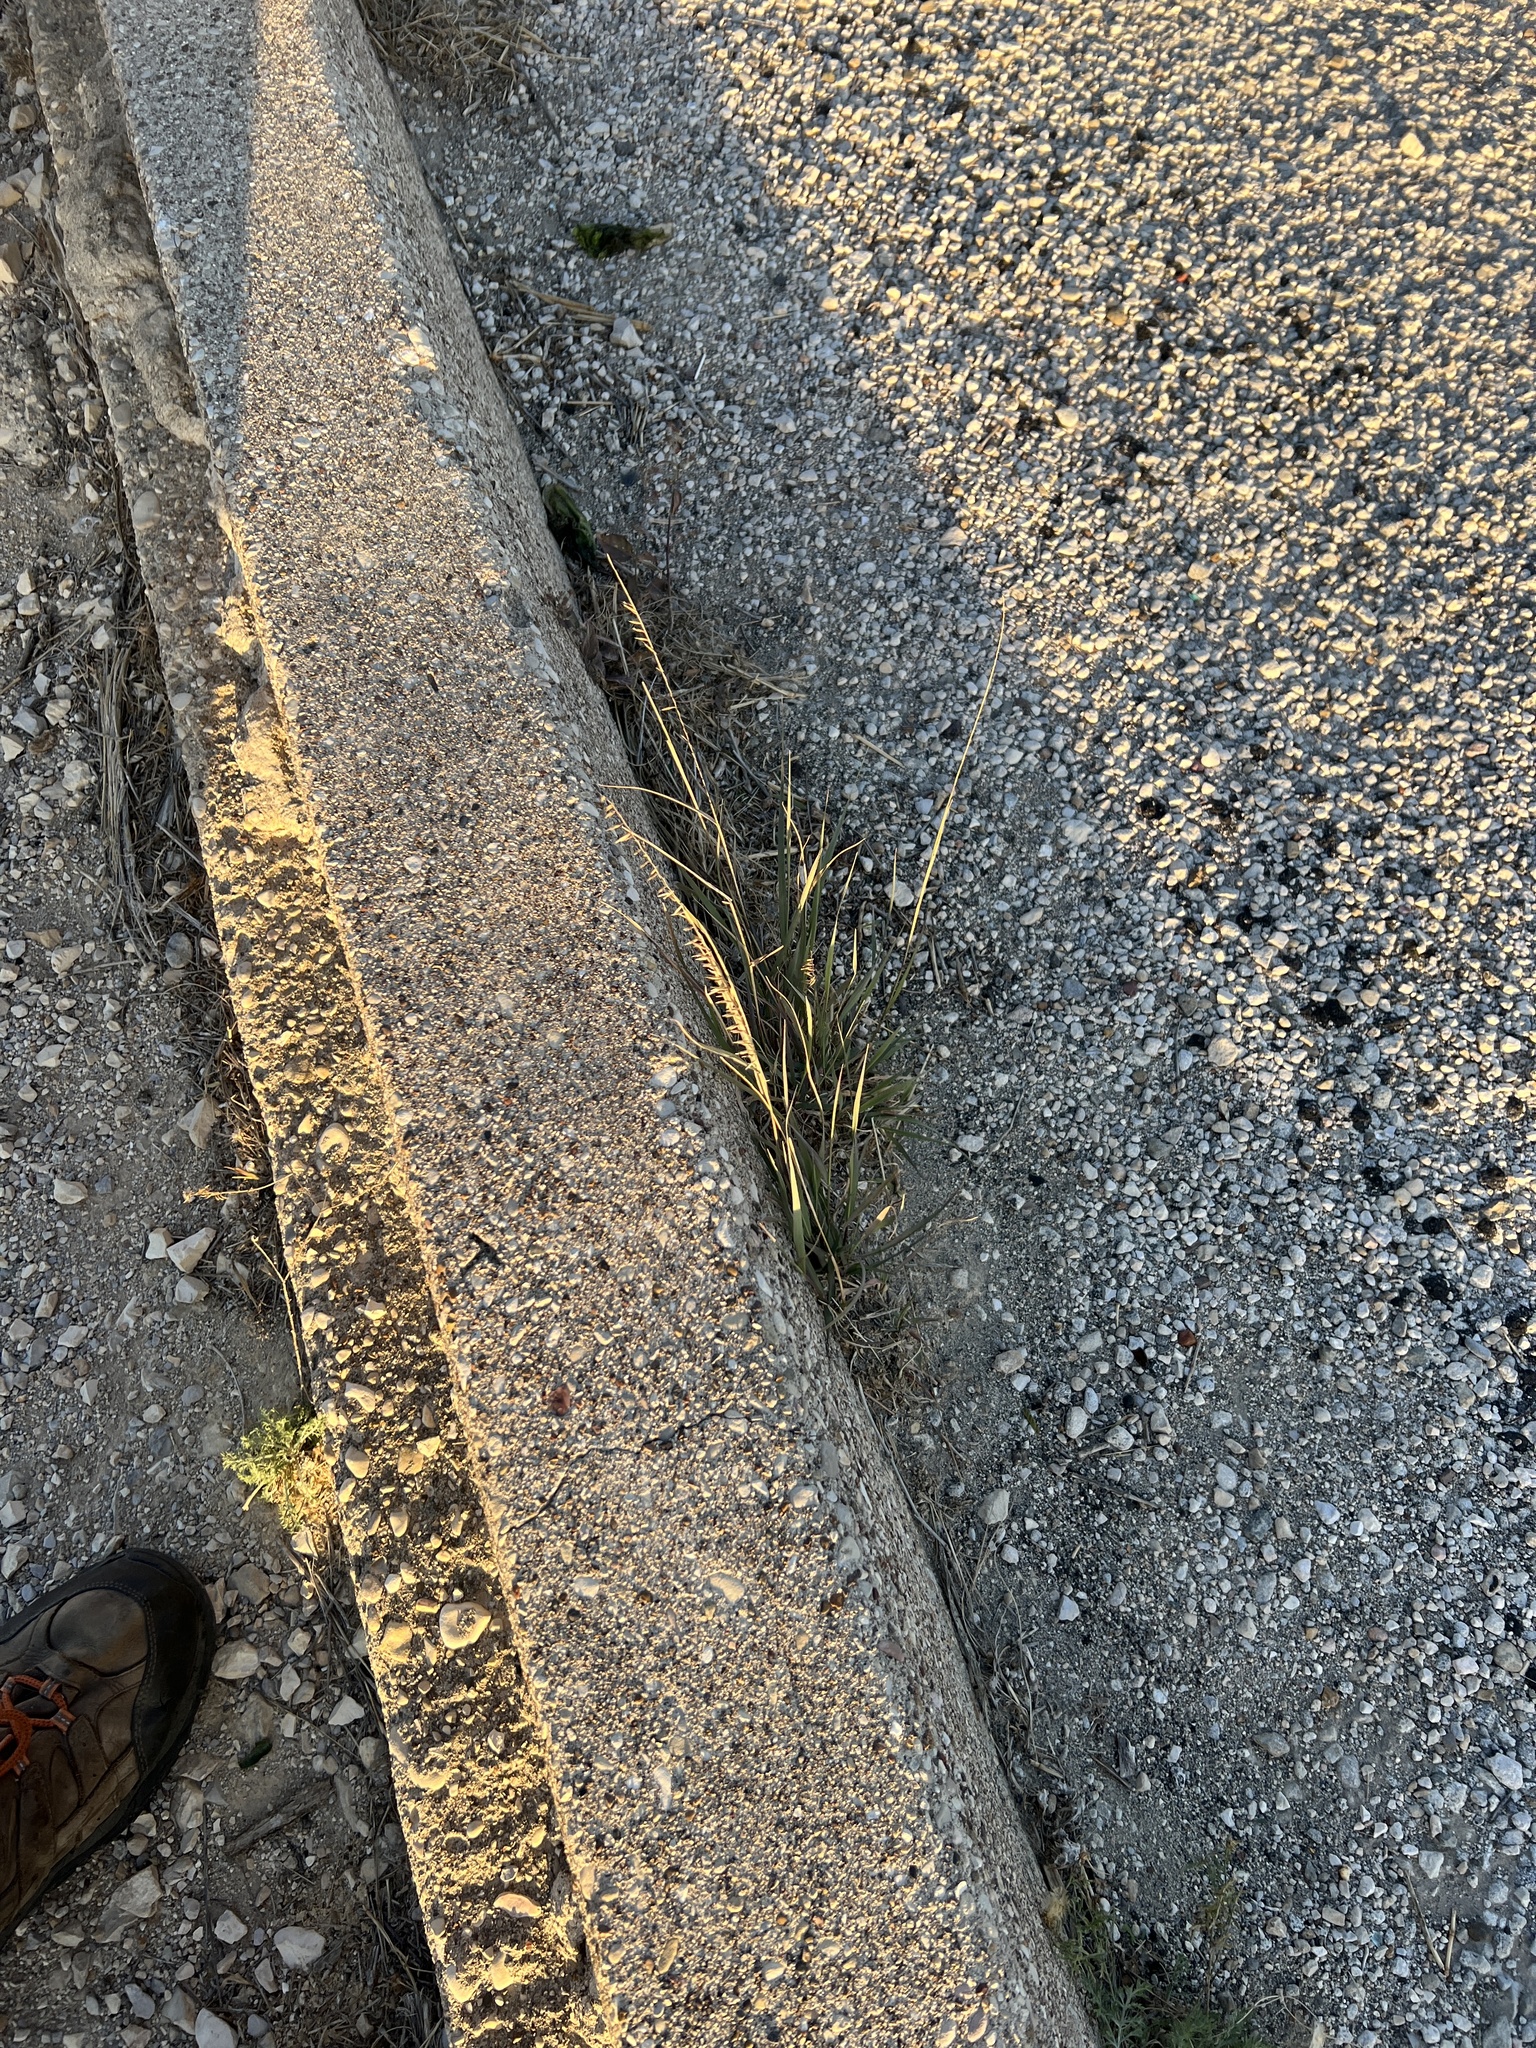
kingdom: Plantae
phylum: Tracheophyta
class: Liliopsida
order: Poales
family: Poaceae
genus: Bouteloua
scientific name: Bouteloua curtipendula
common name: Side-oats grama
